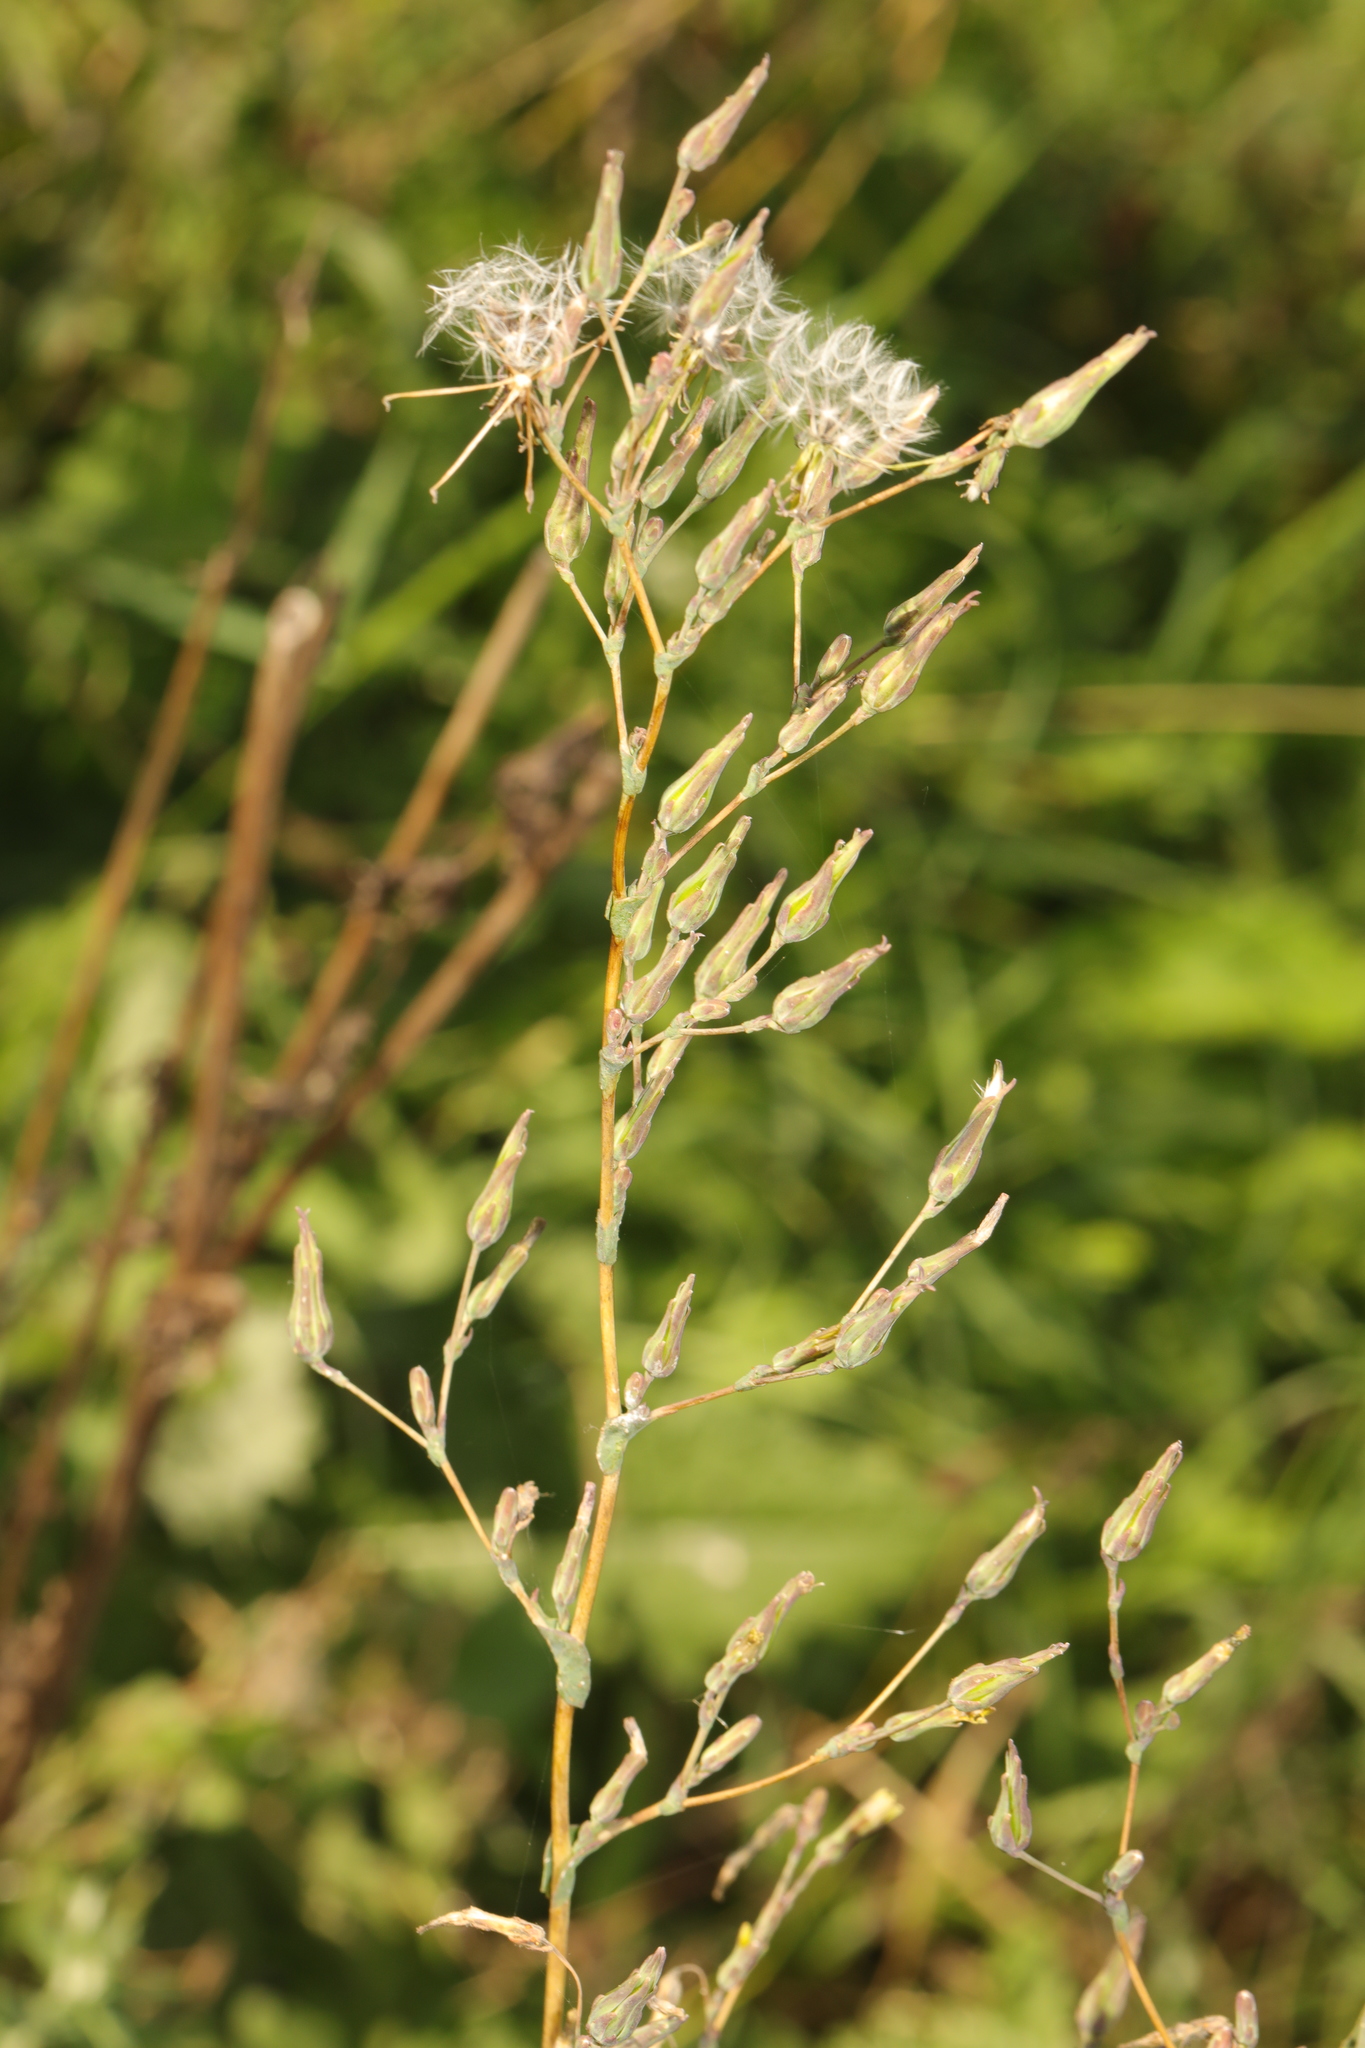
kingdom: Plantae
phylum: Tracheophyta
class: Magnoliopsida
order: Asterales
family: Asteraceae
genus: Lactuca
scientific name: Lactuca serriola
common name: Prickly lettuce
